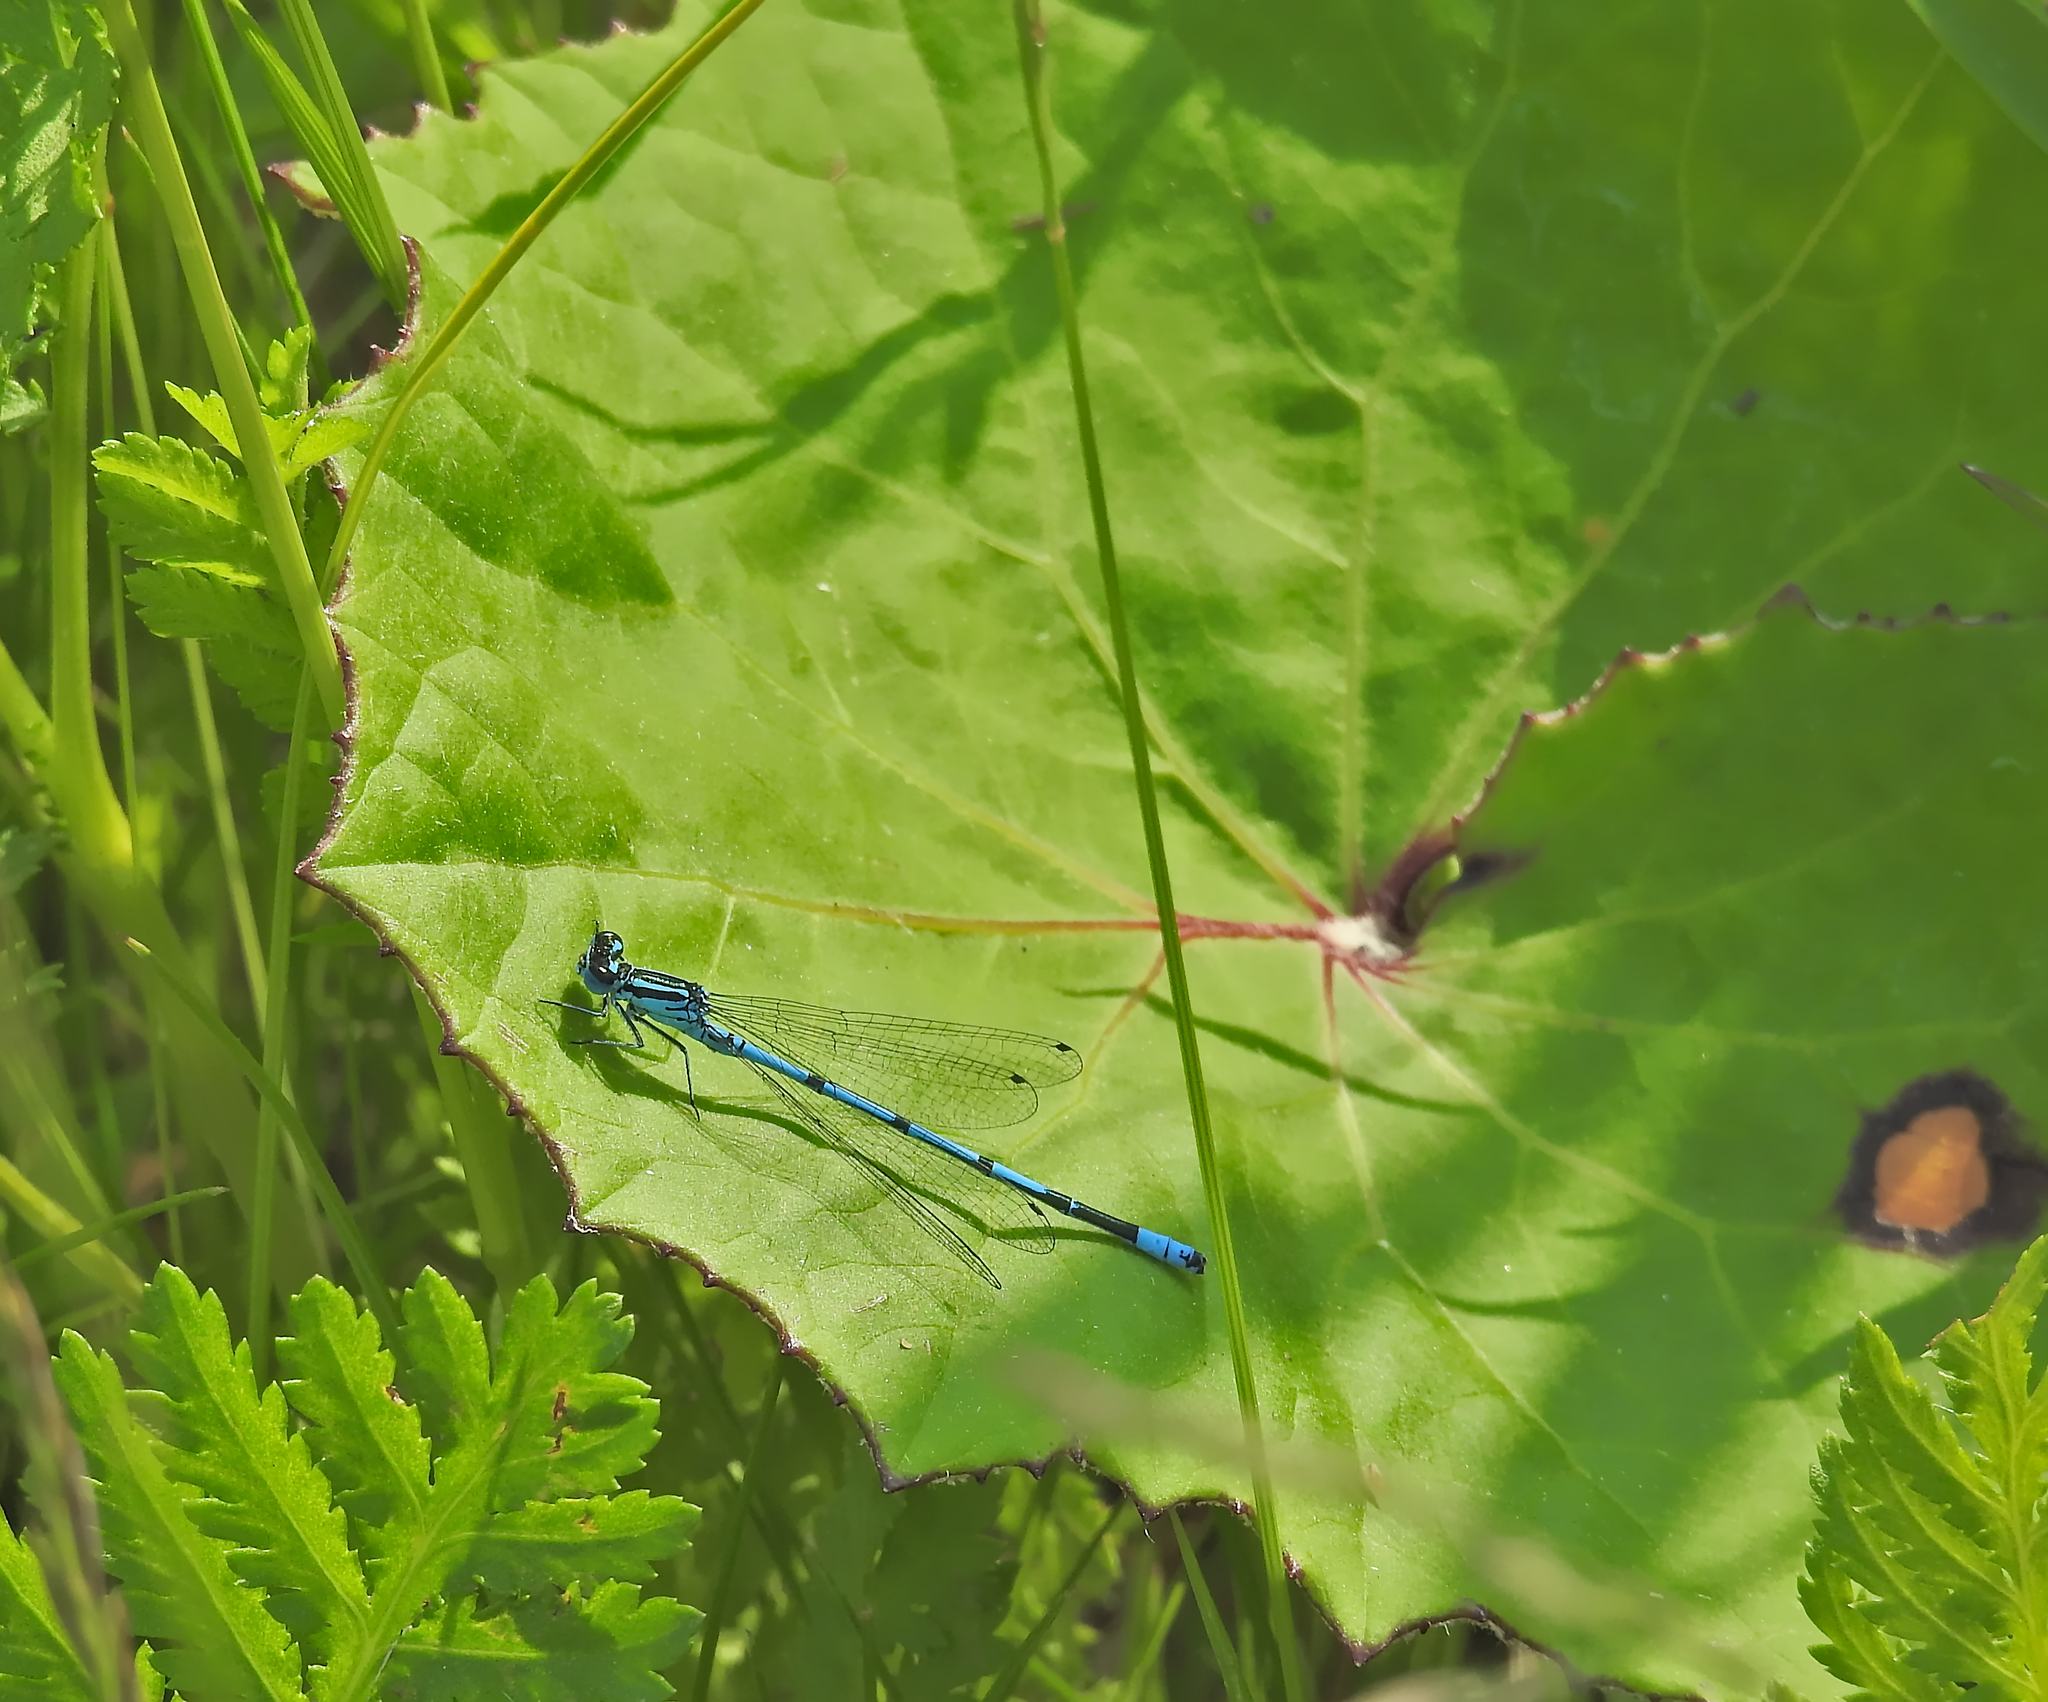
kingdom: Animalia
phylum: Arthropoda
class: Insecta
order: Odonata
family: Coenagrionidae
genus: Coenagrion
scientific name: Coenagrion puella
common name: Azure damselfly
